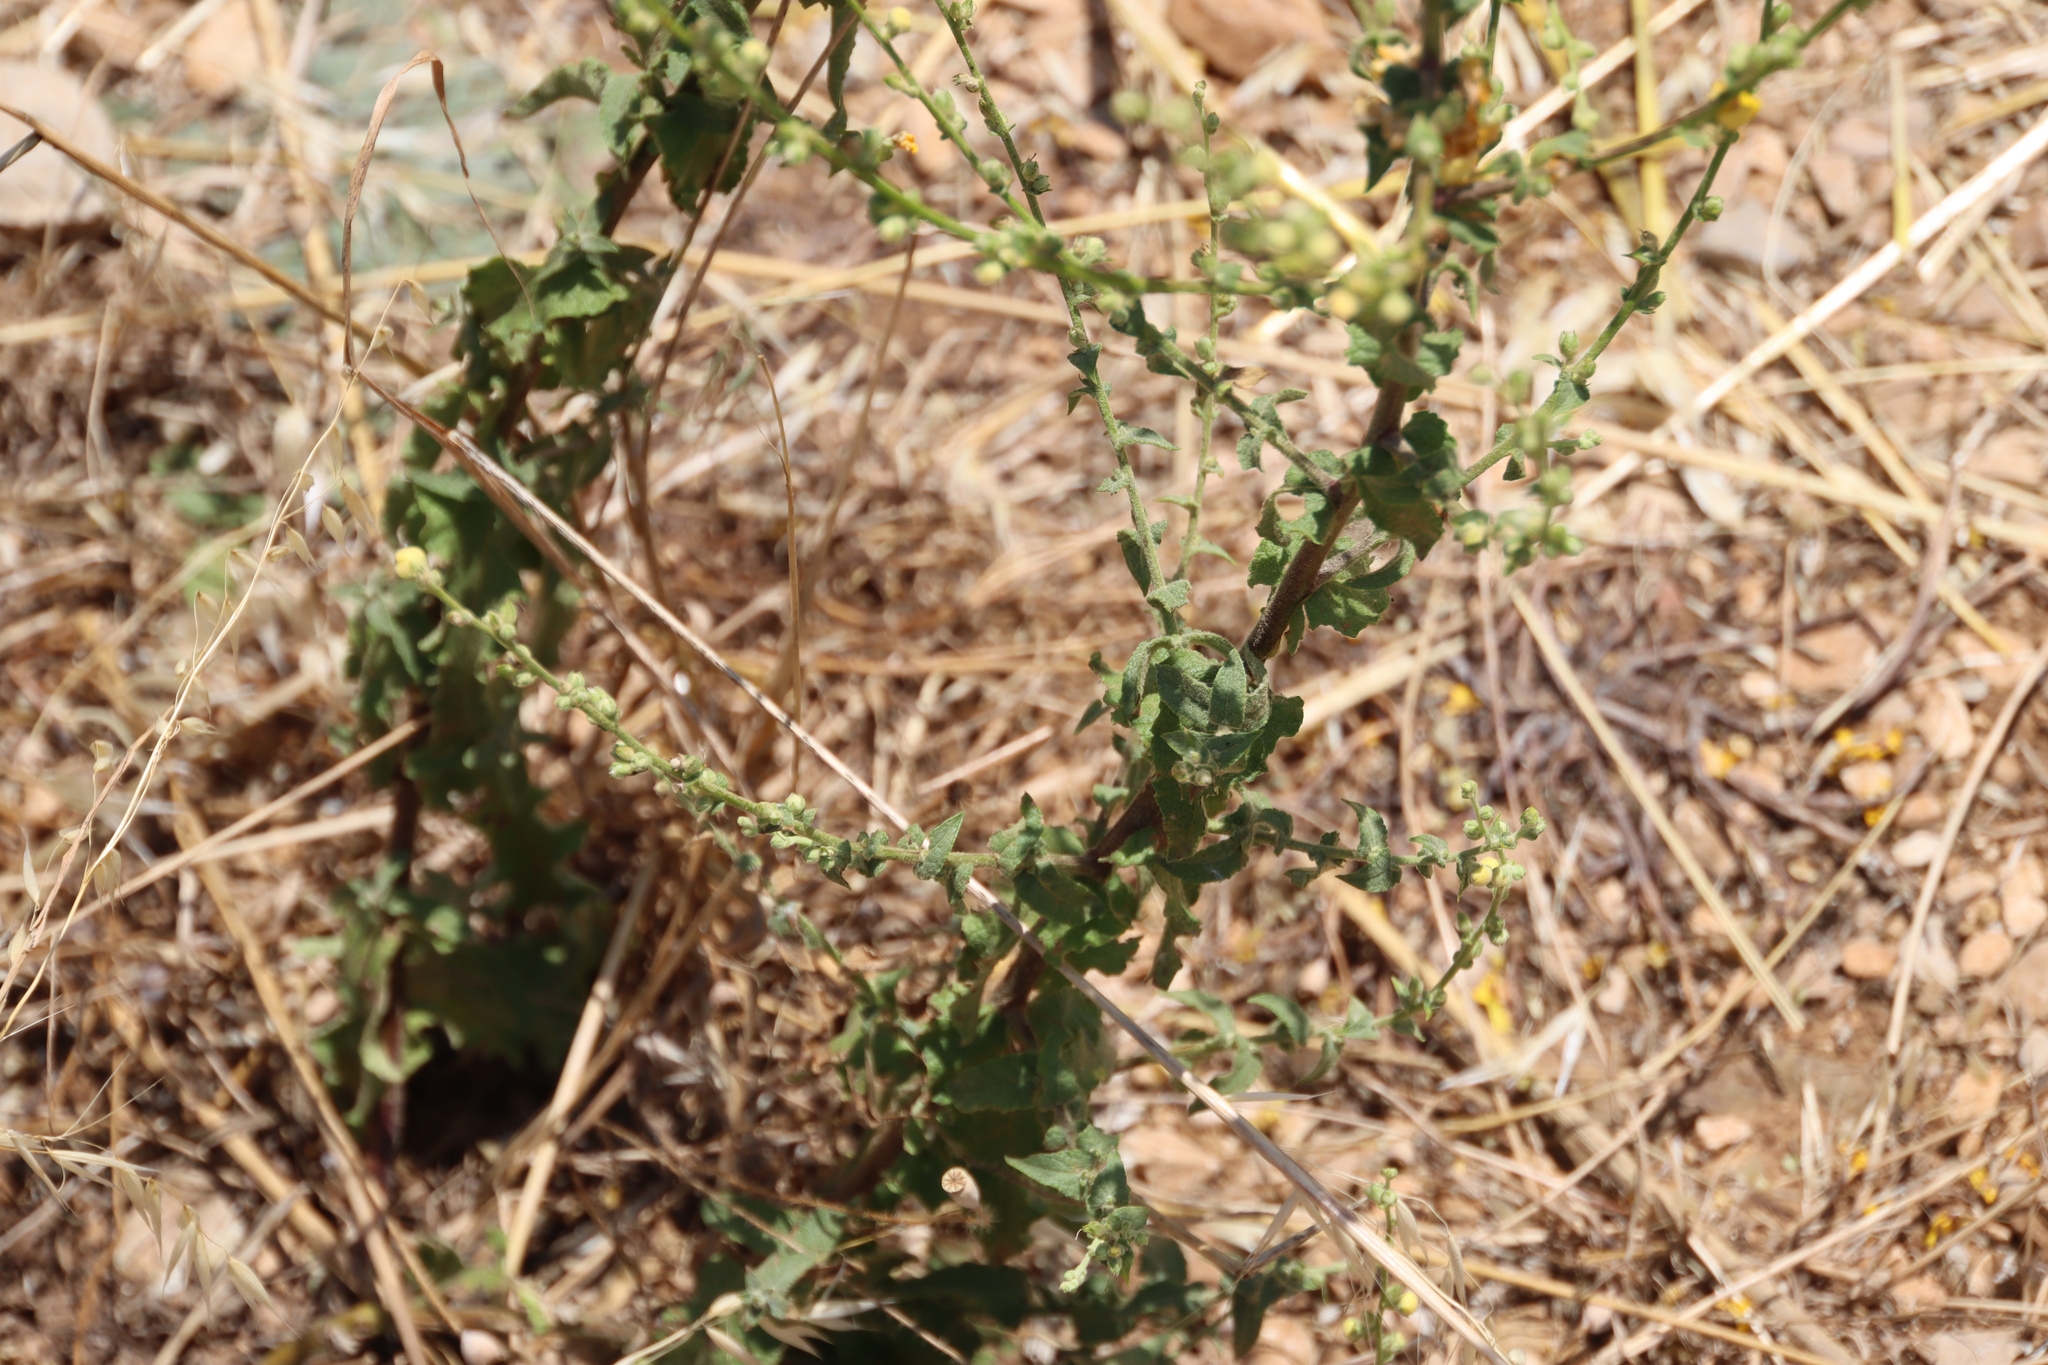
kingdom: Plantae
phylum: Tracheophyta
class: Magnoliopsida
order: Lamiales
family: Scrophulariaceae
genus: Verbascum
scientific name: Verbascum sinuatum
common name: Wavyleaf mullein
